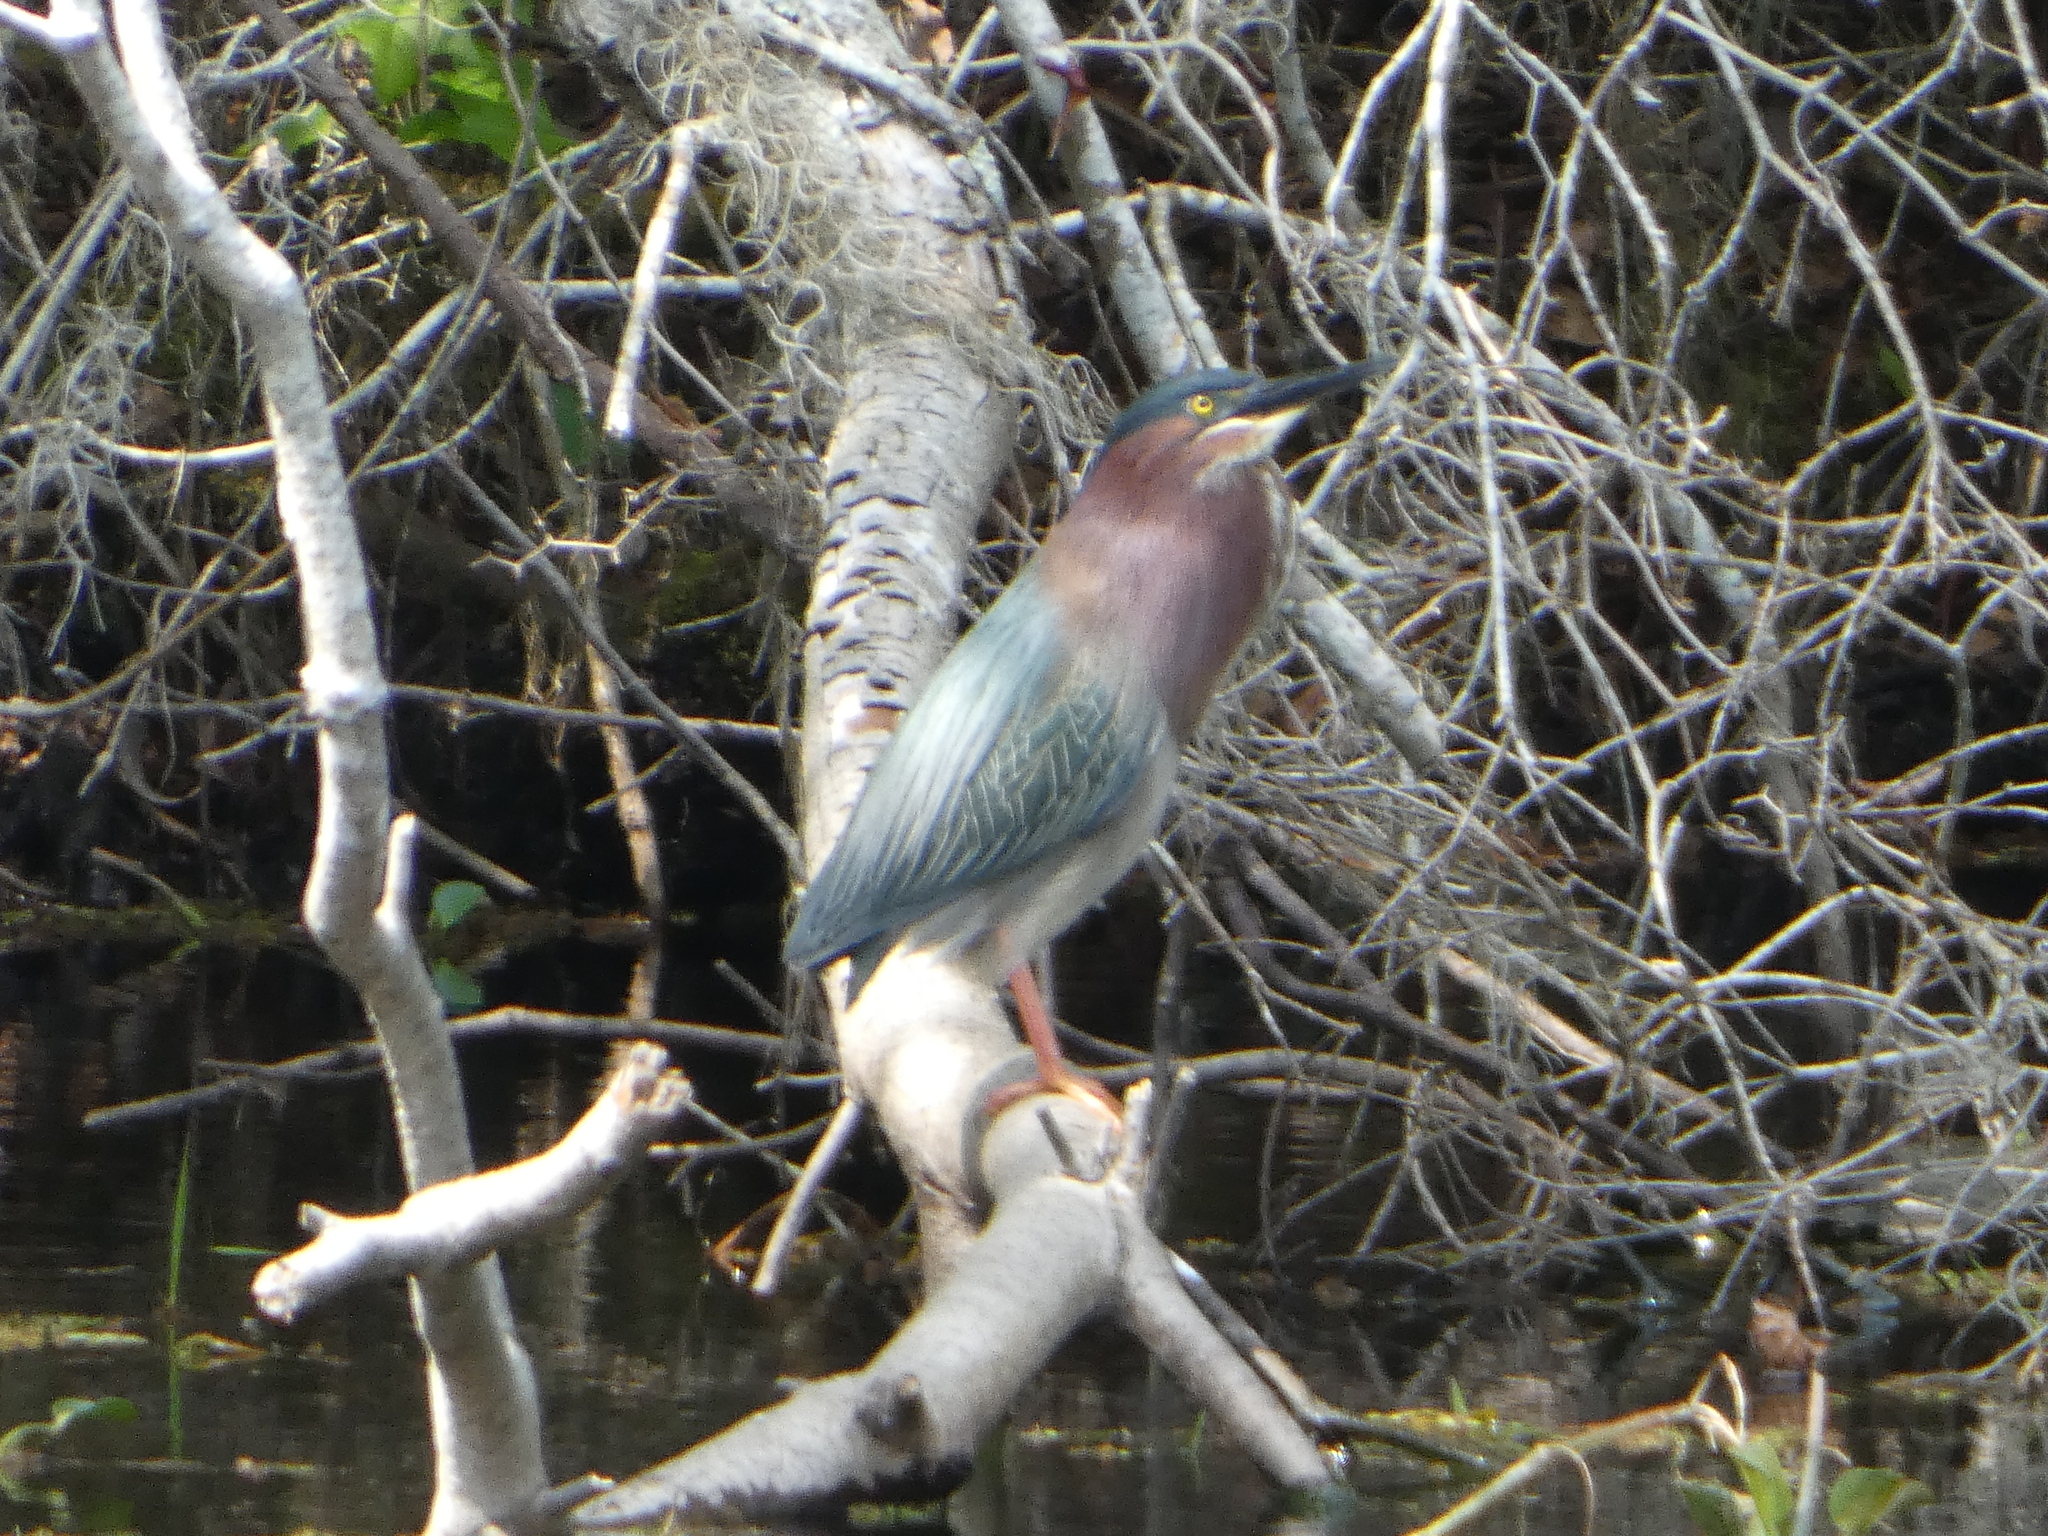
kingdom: Animalia
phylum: Chordata
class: Aves
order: Pelecaniformes
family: Ardeidae
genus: Butorides
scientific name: Butorides virescens
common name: Green heron
